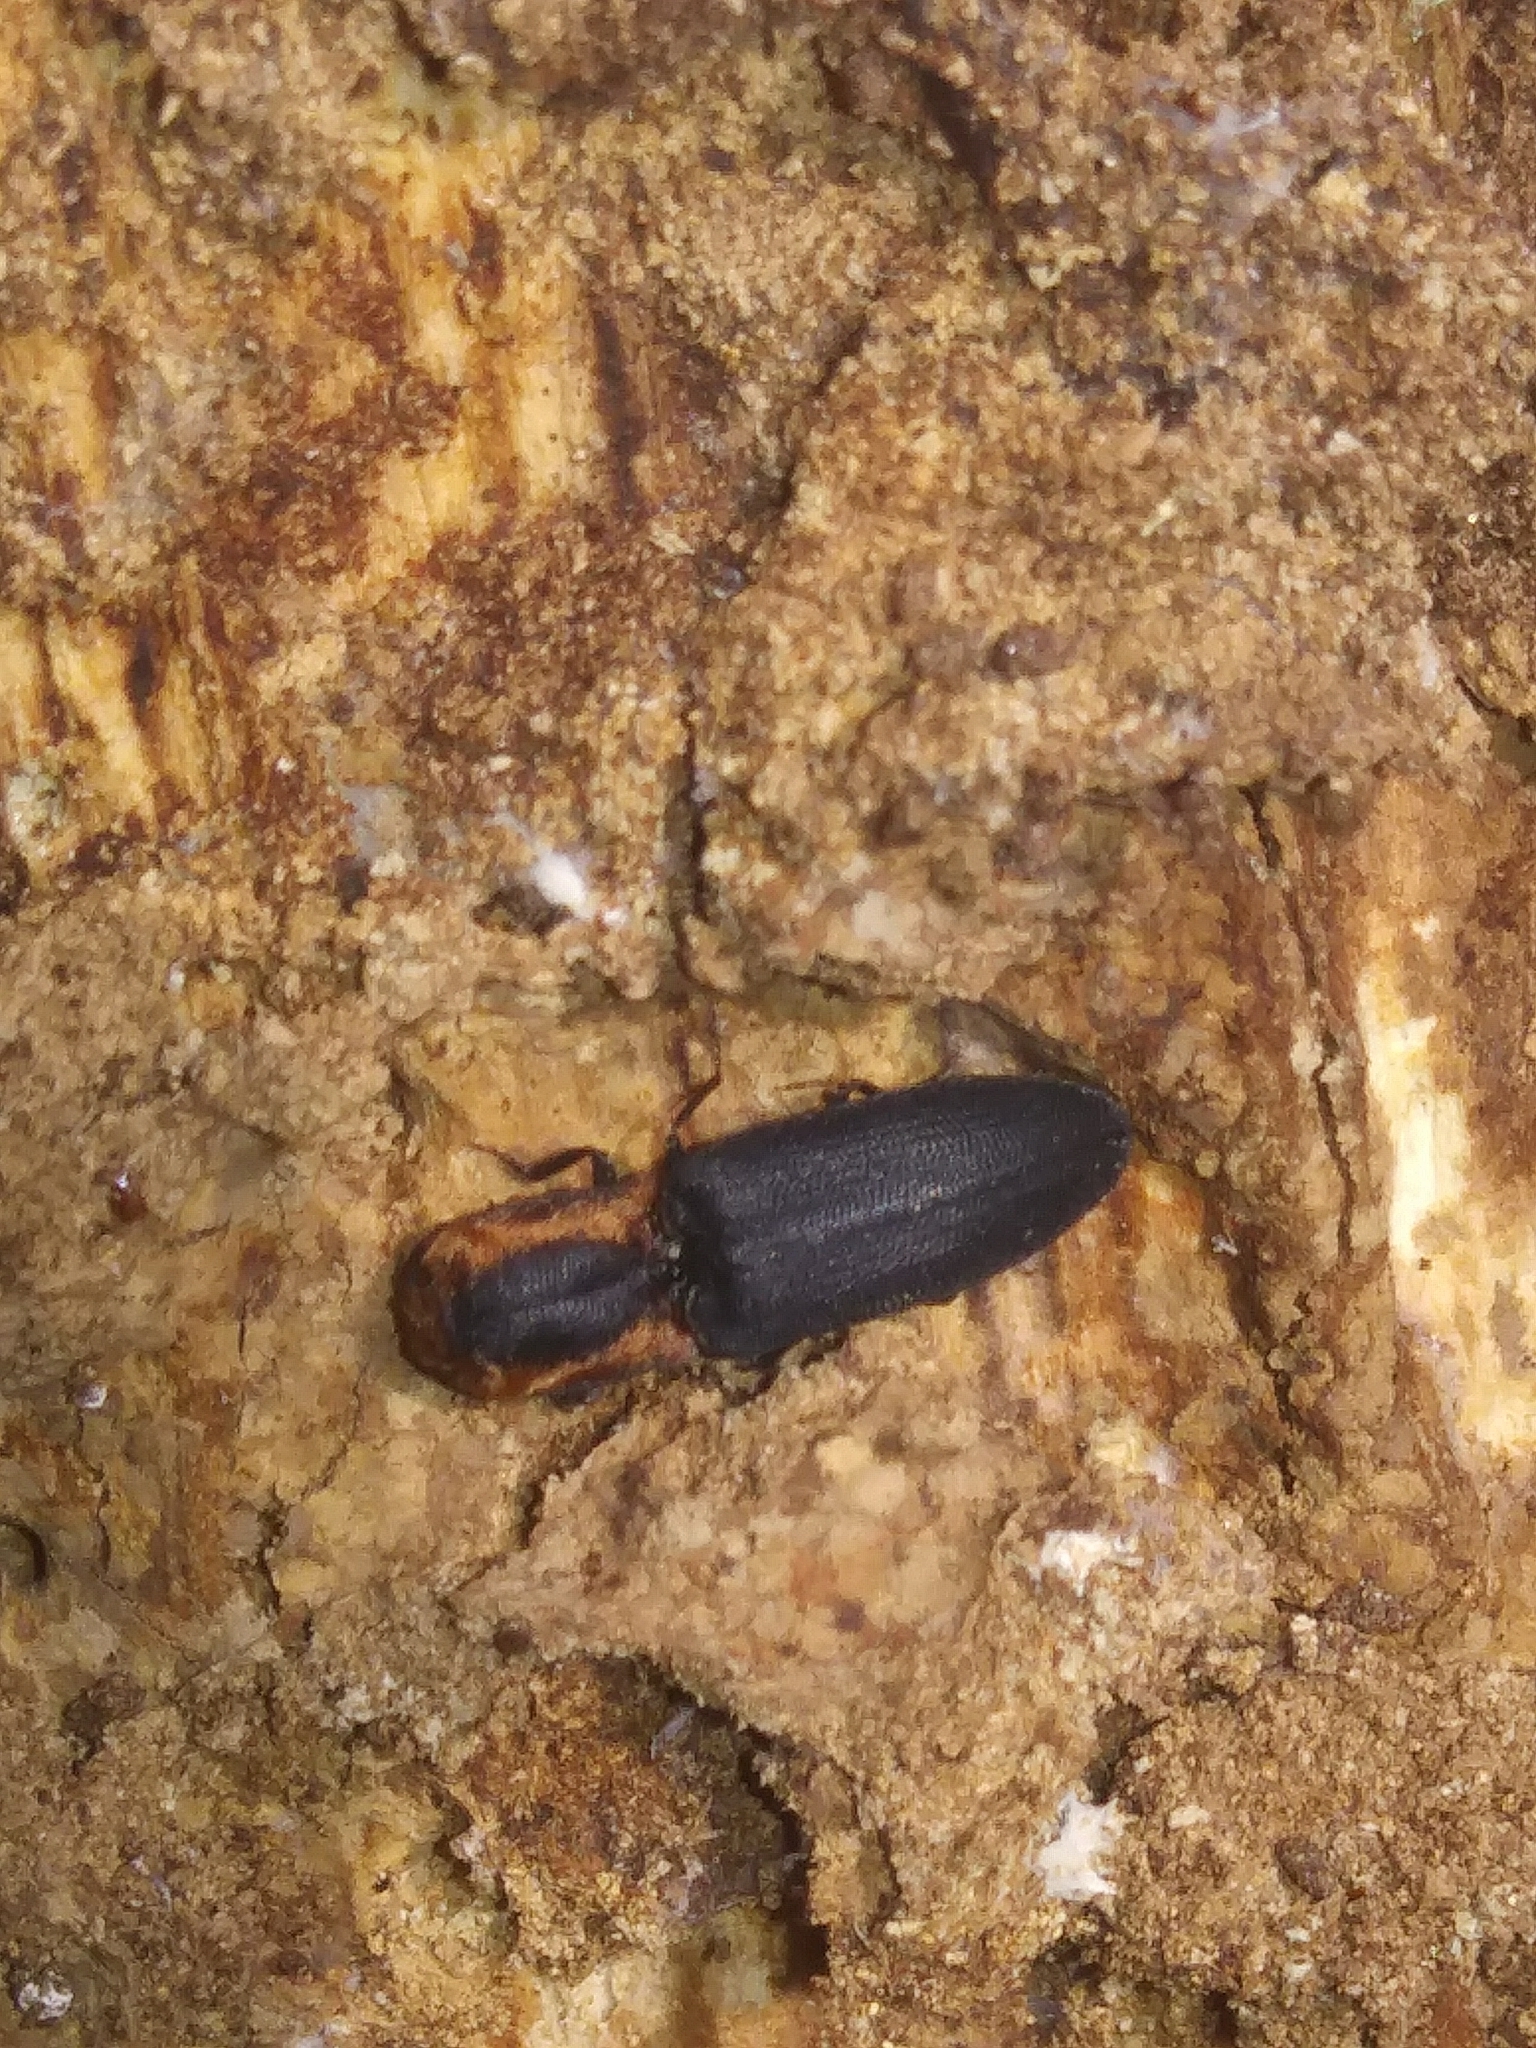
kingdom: Animalia
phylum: Arthropoda
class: Insecta
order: Coleoptera
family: Elateridae
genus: Lacon
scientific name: Lacon discoideus
